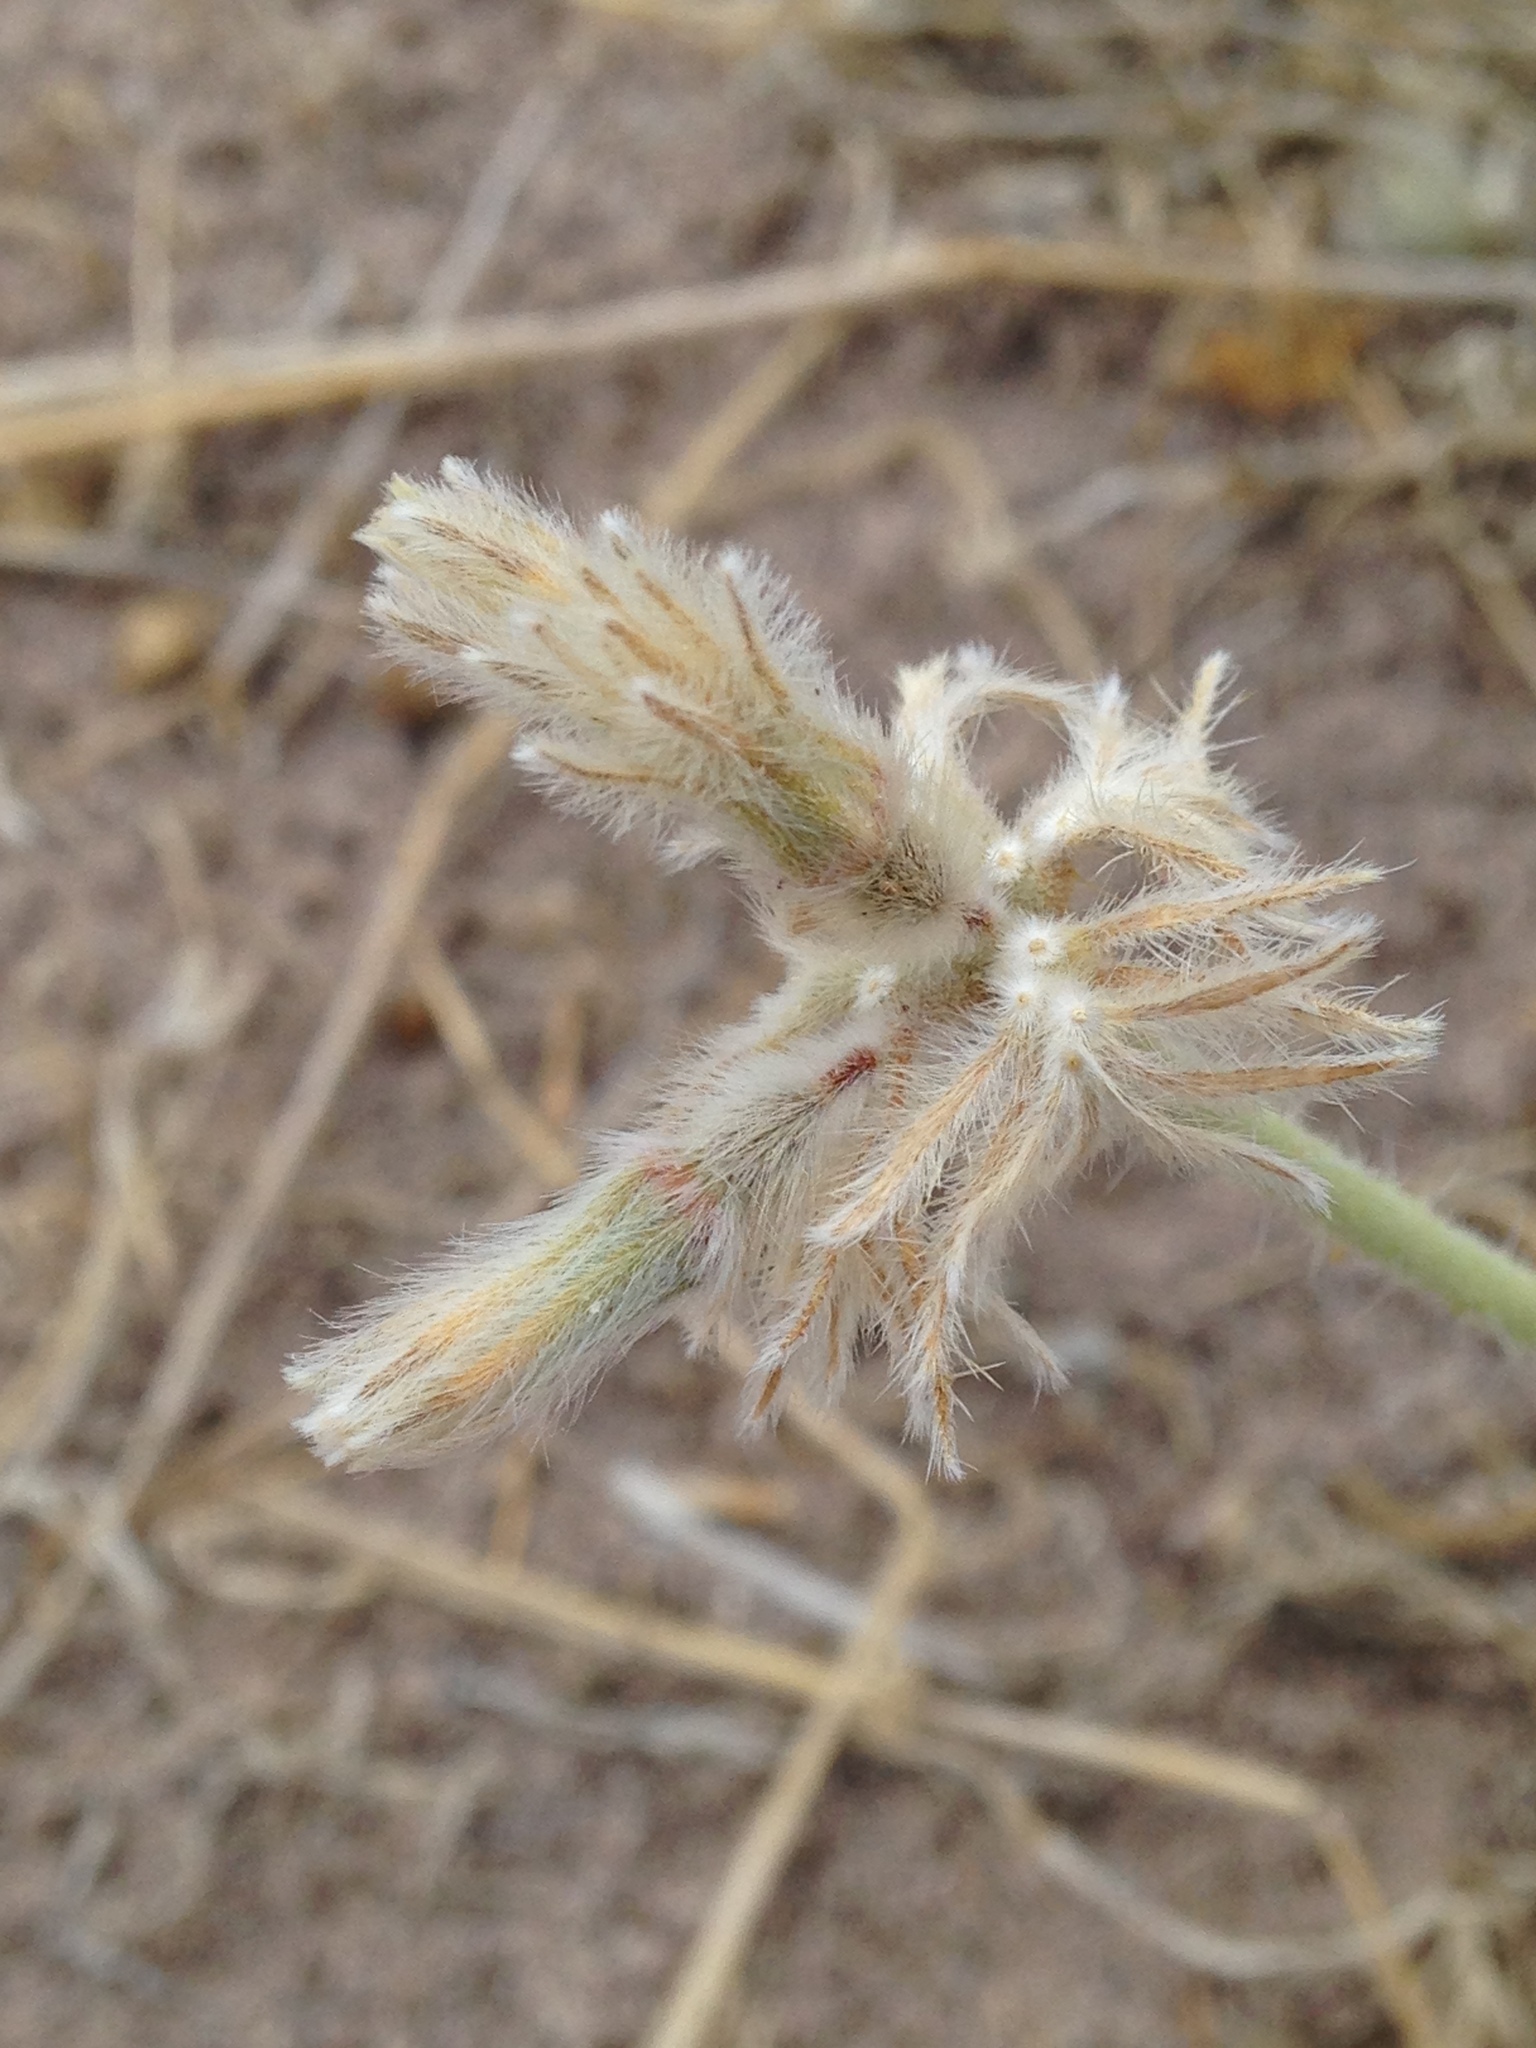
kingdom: Plantae
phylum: Tracheophyta
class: Magnoliopsida
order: Cornales
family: Loasaceae
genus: Cevallia
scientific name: Cevallia sinuata
